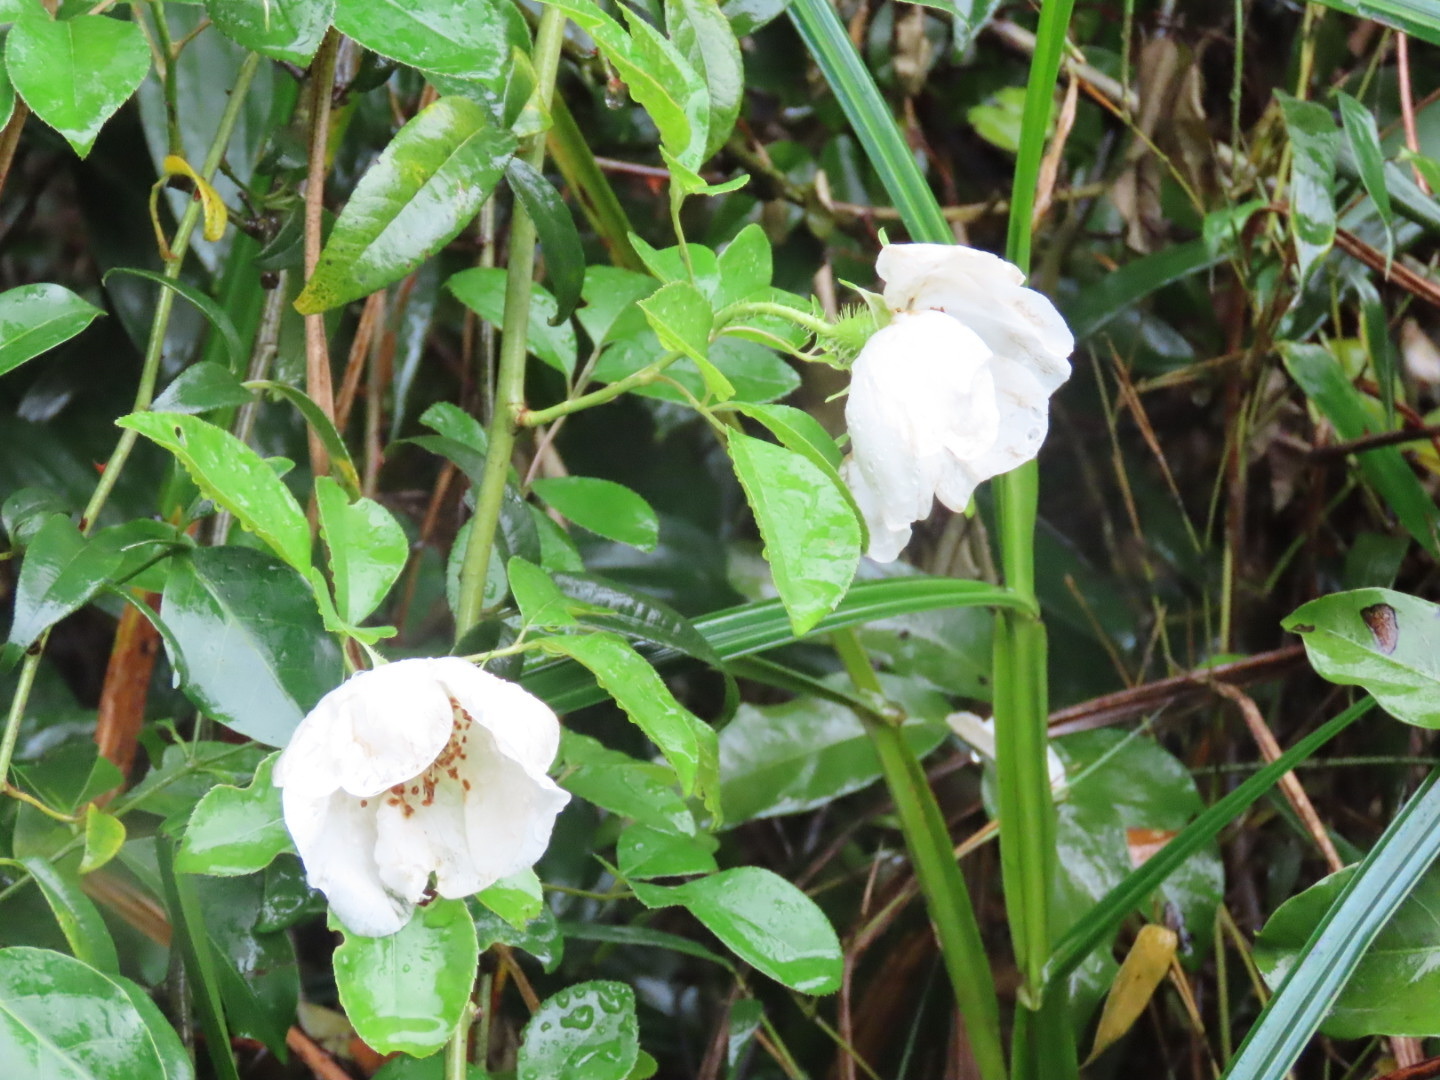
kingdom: Plantae
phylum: Tracheophyta
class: Magnoliopsida
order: Rosales
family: Rosaceae
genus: Rosa
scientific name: Rosa laevigata
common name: Cherokee rose
